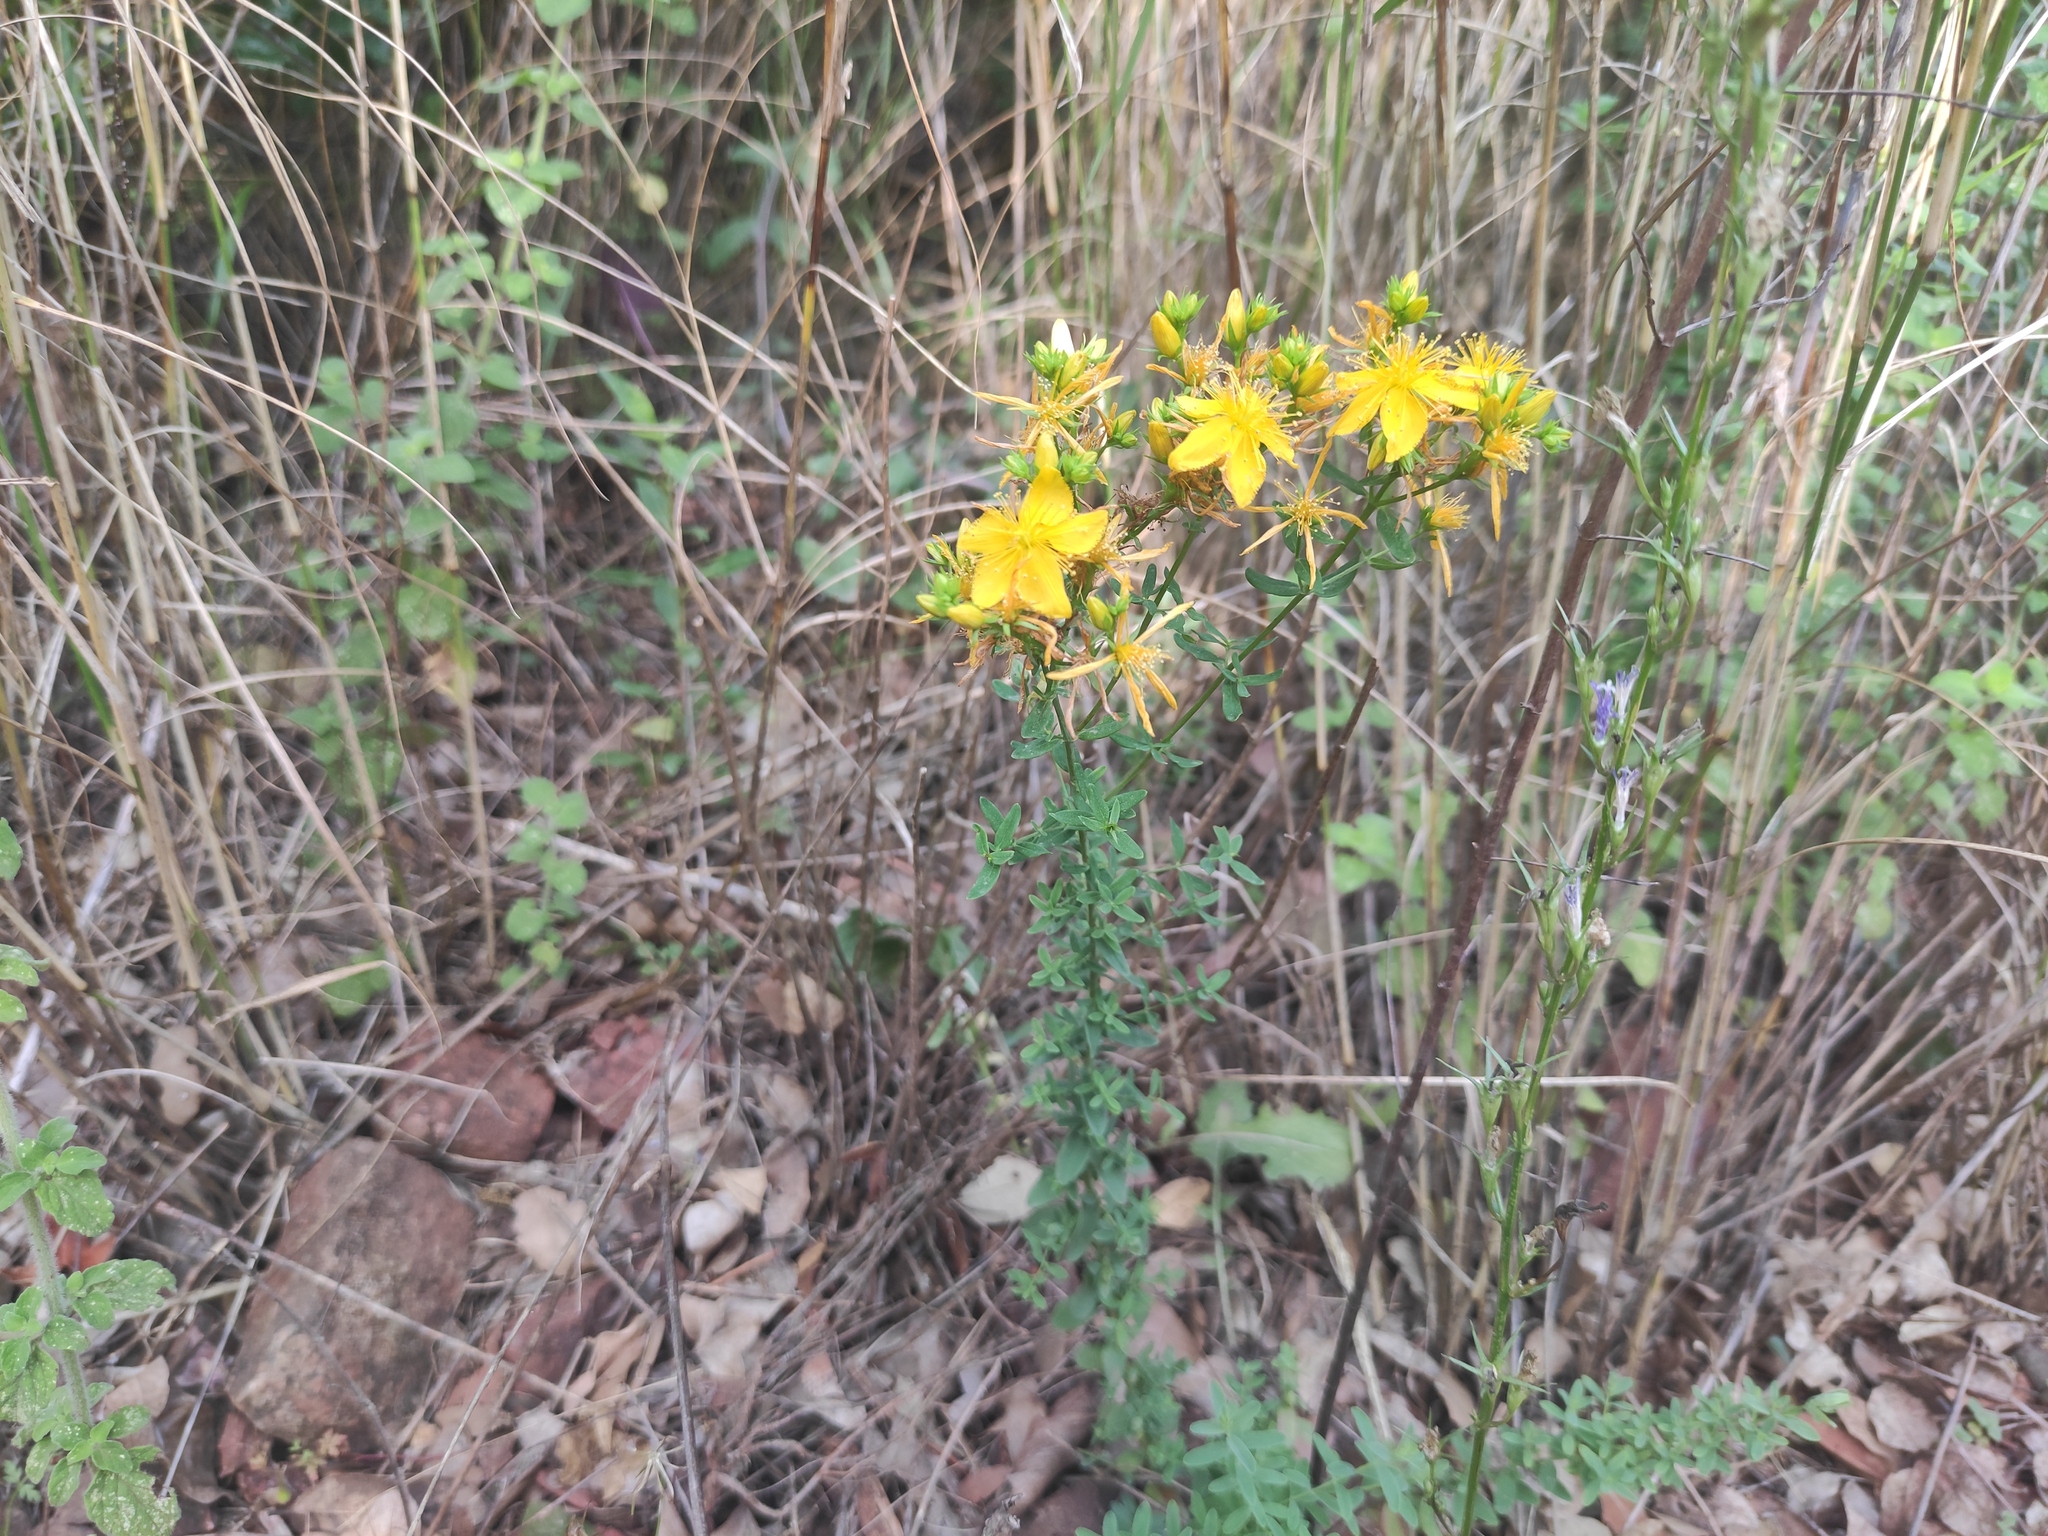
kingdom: Plantae
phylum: Tracheophyta
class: Magnoliopsida
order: Malpighiales
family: Hypericaceae
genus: Hypericum
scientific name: Hypericum perforatum
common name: Common st. johnswort
